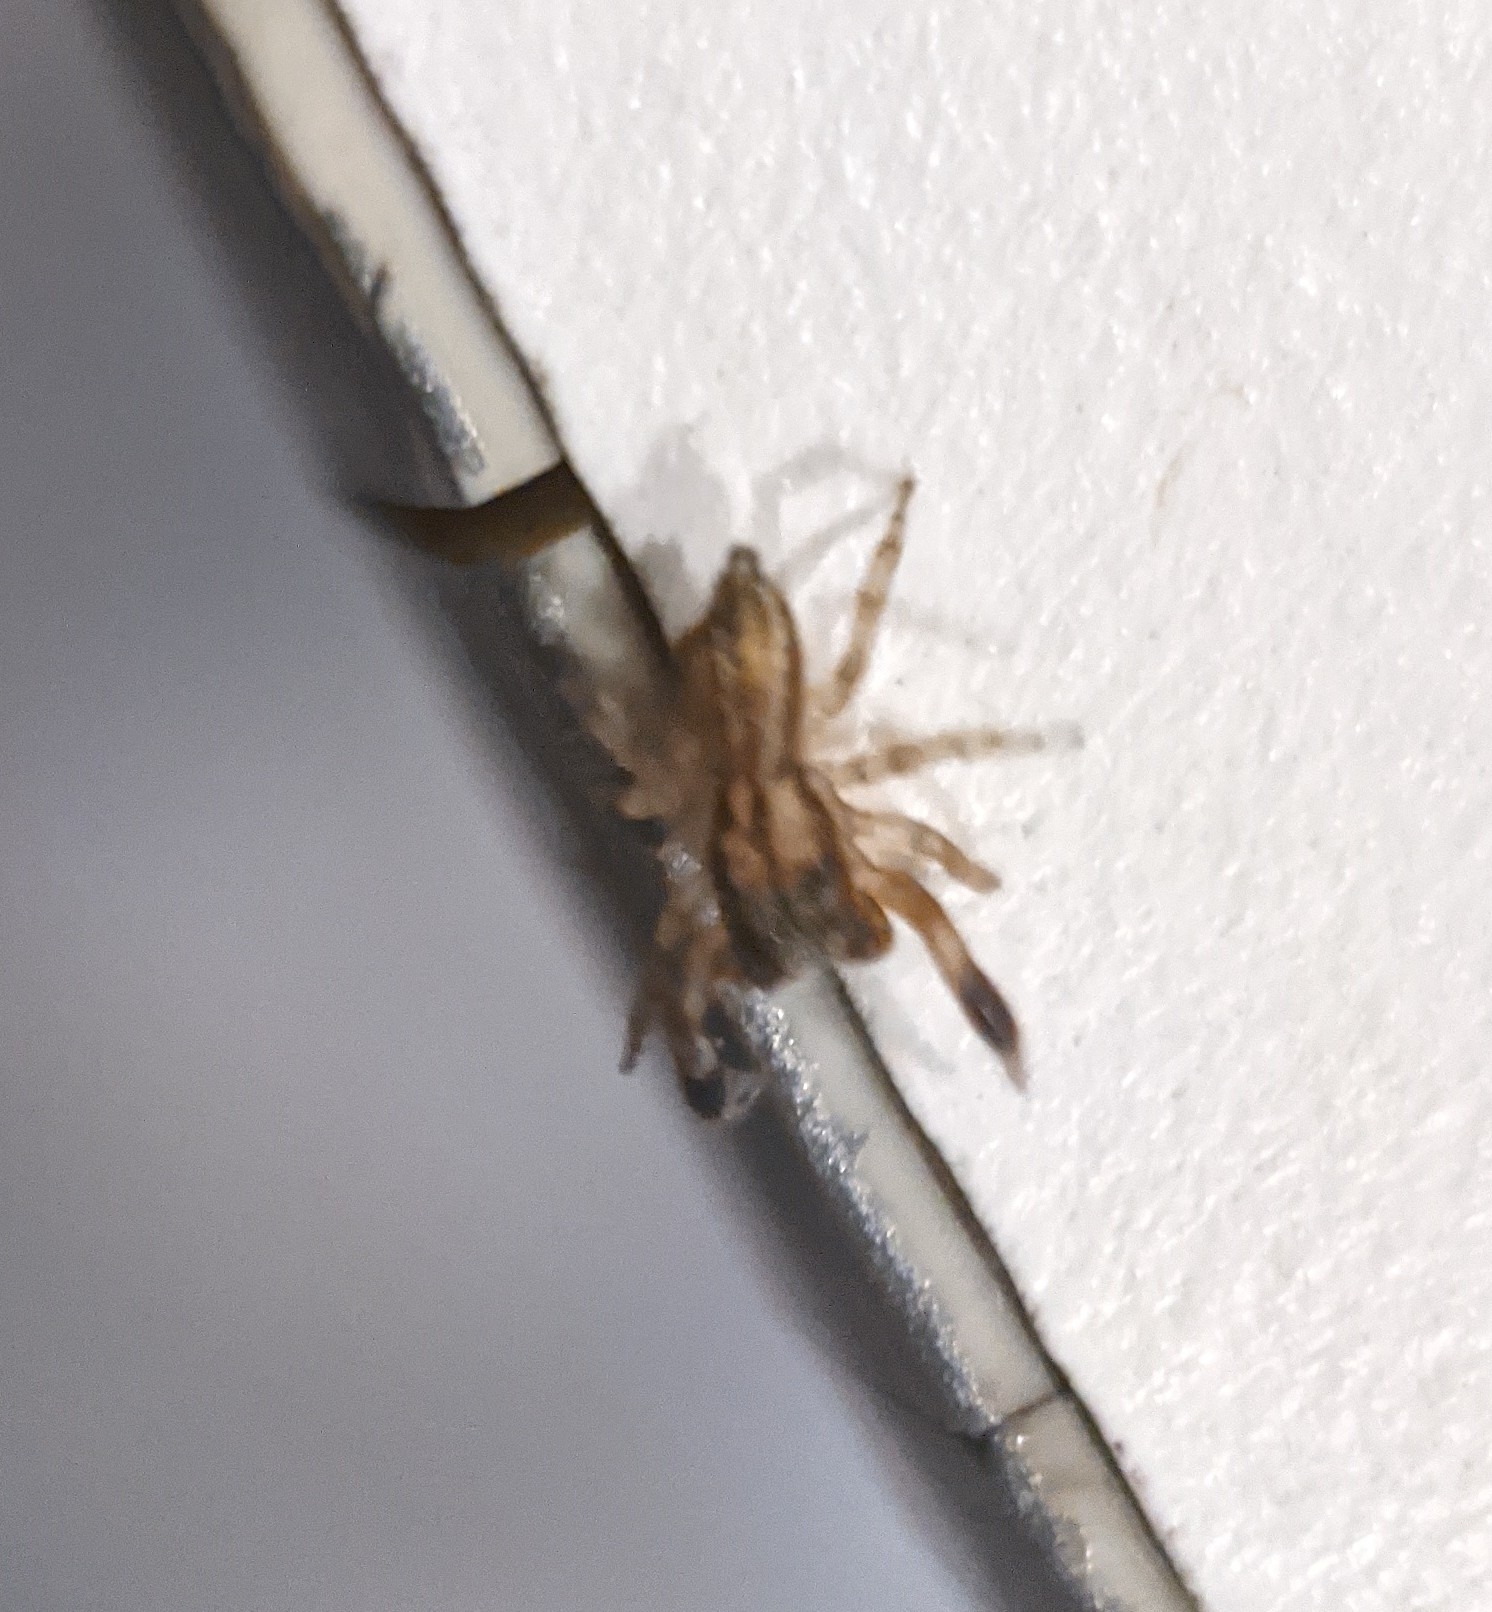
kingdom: Animalia
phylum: Arthropoda
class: Arachnida
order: Araneae
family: Salticidae
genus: Marpissa
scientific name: Marpissa lineata
